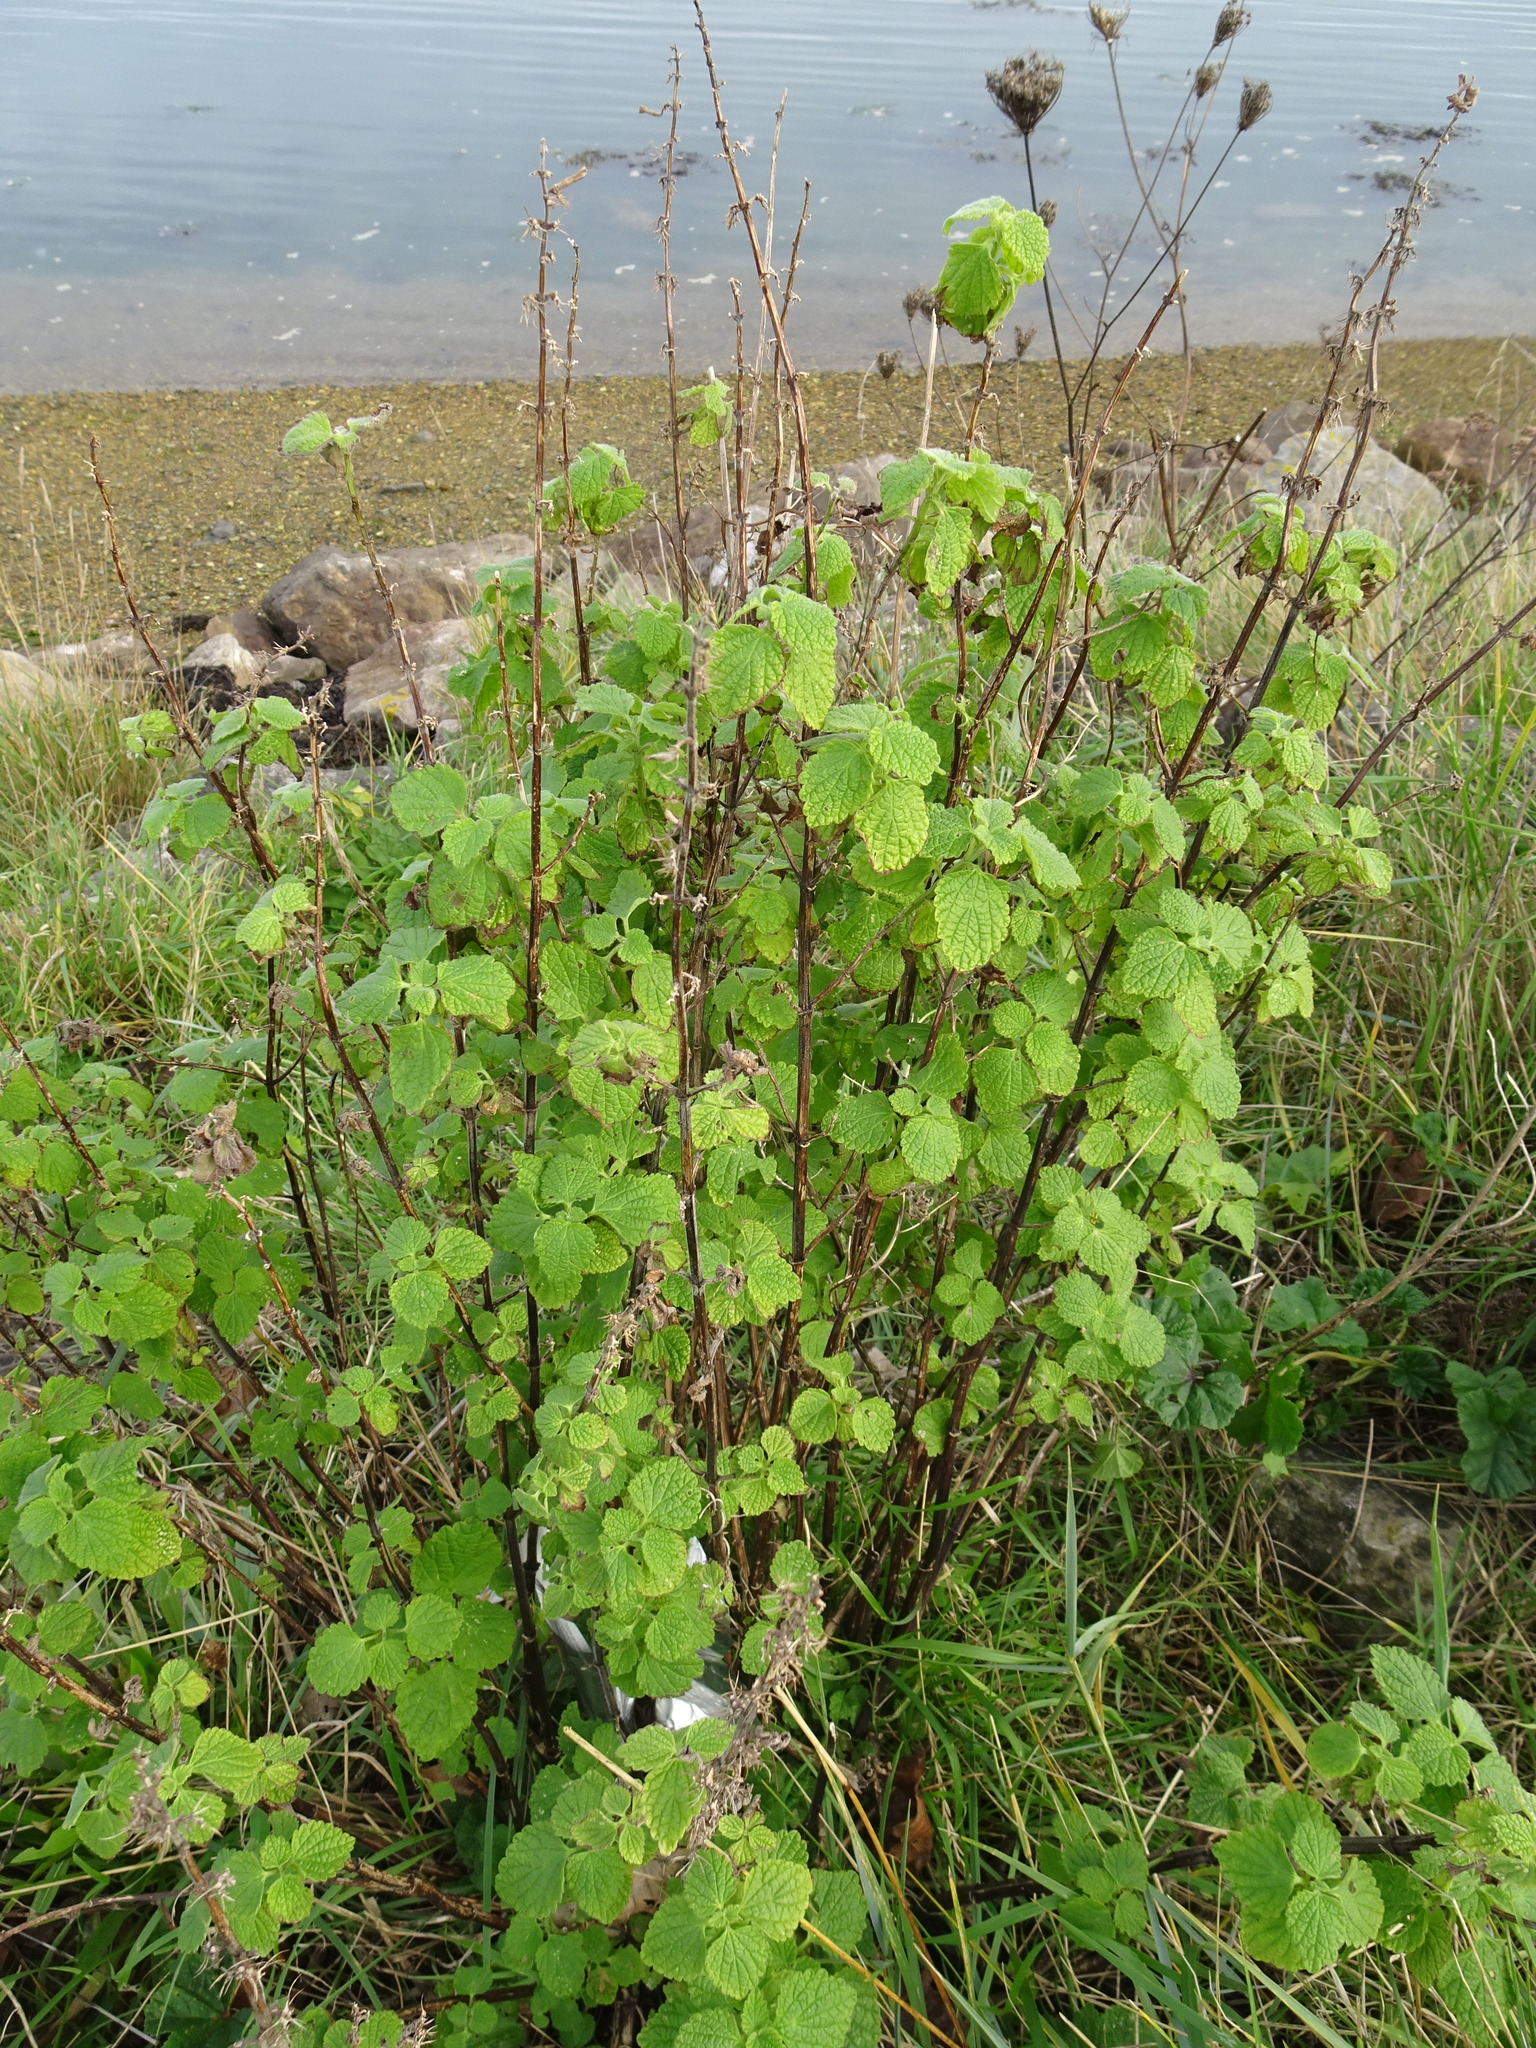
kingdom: Plantae
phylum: Tracheophyta
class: Magnoliopsida
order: Lamiales
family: Lamiaceae
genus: Ballota
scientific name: Ballota nigra
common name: Black horehound
